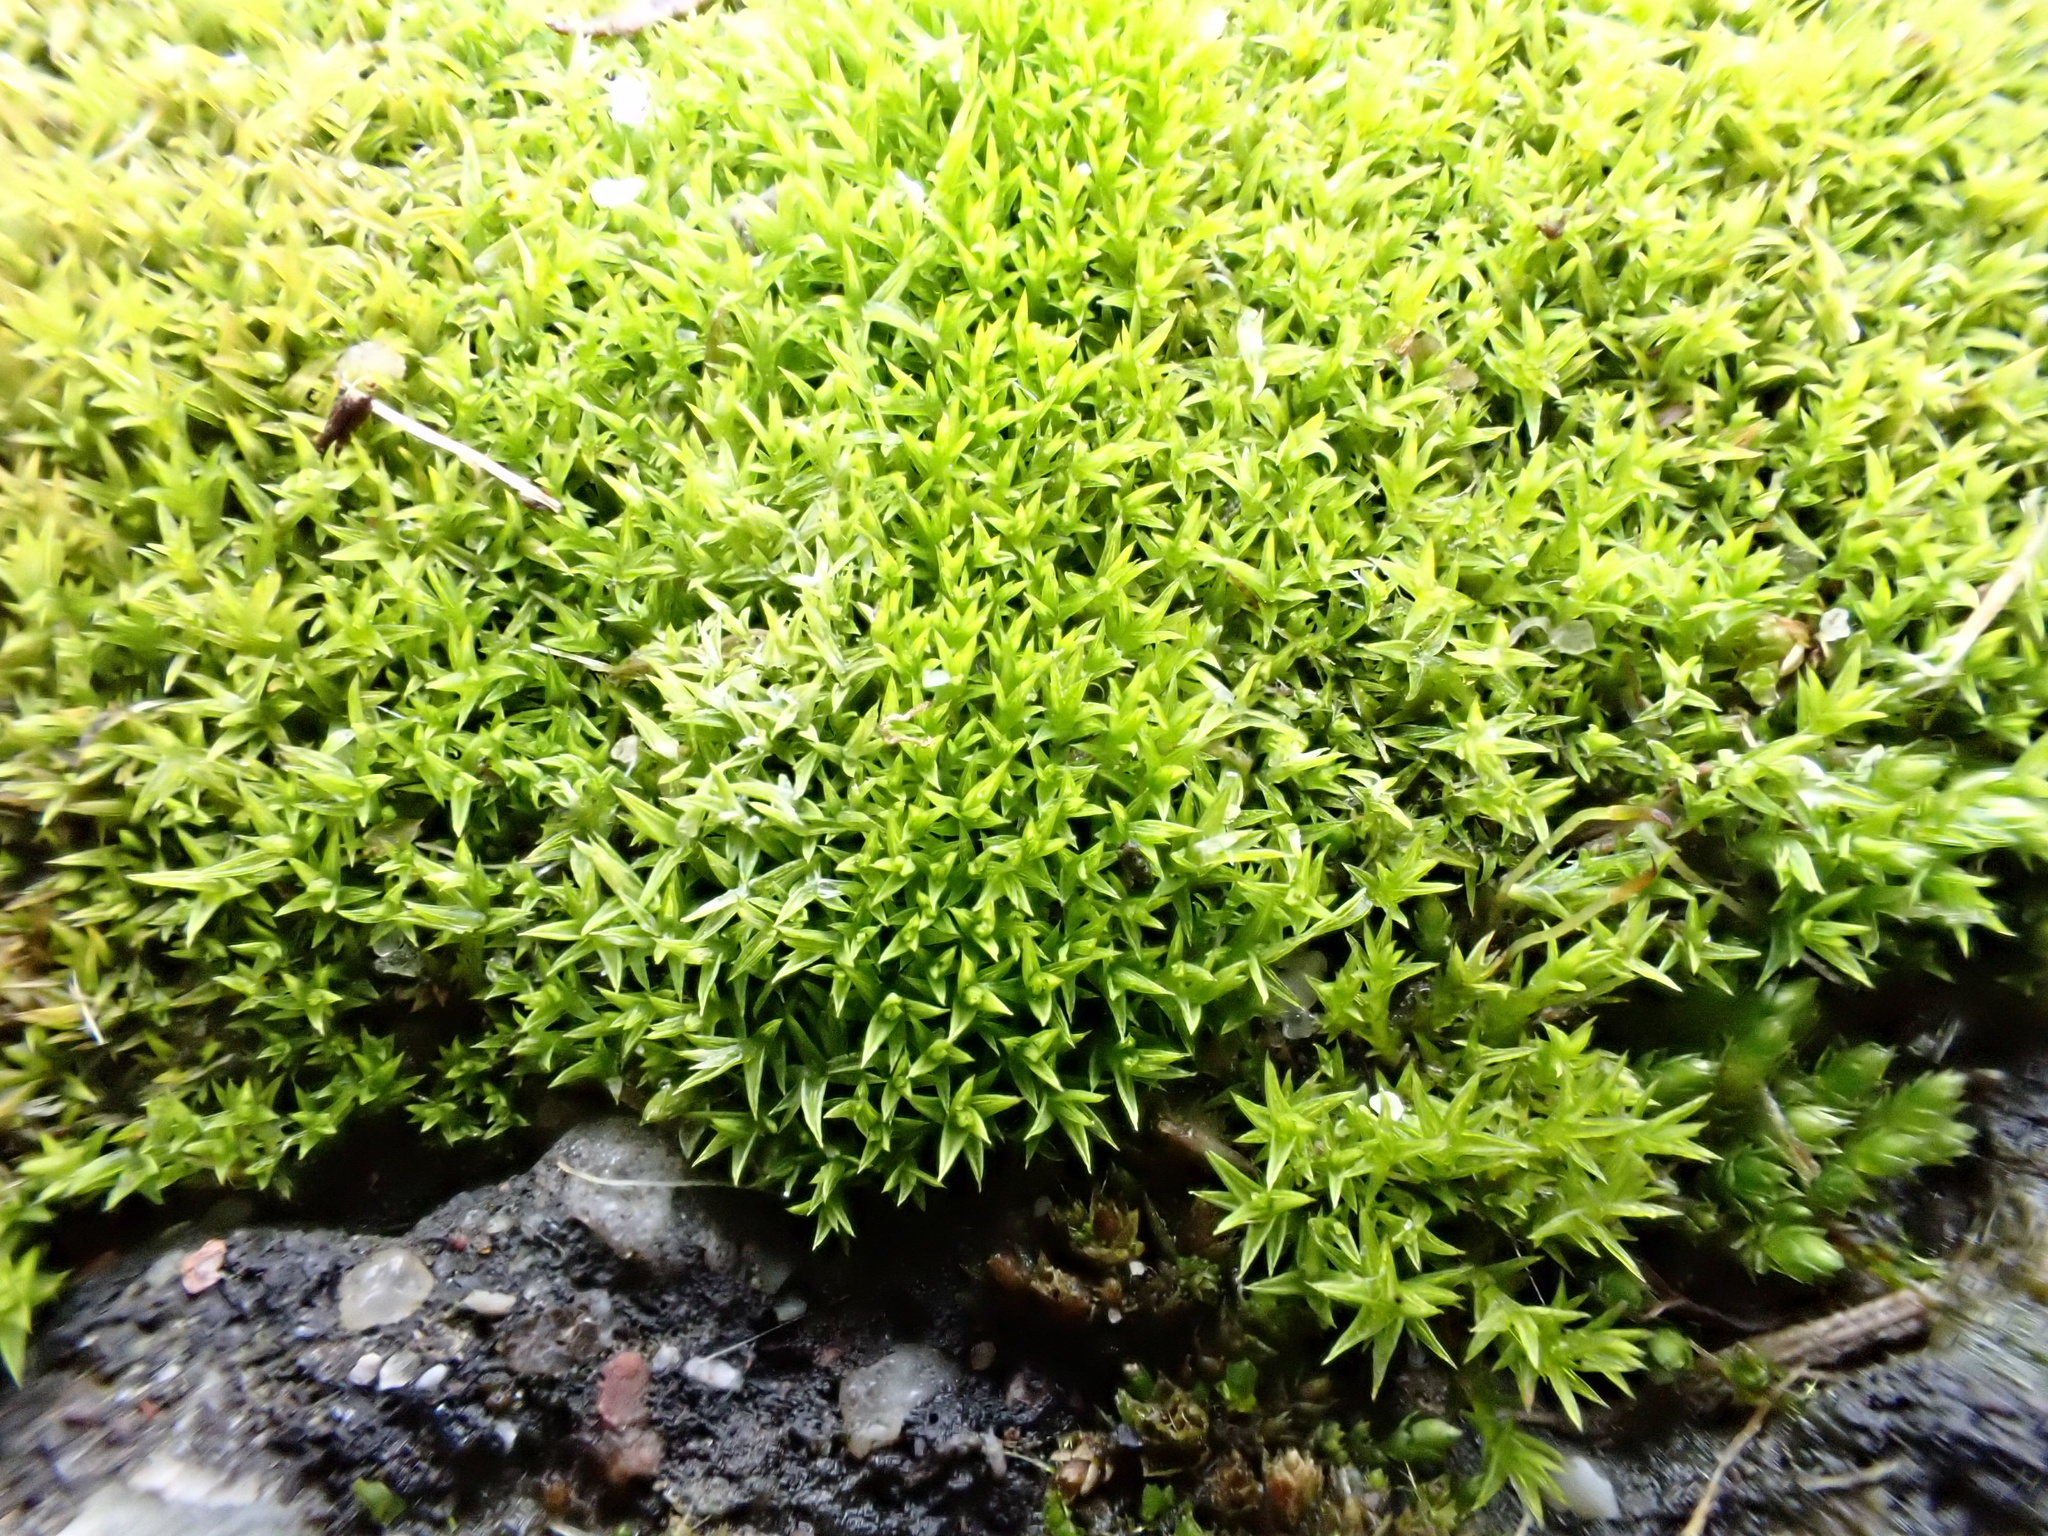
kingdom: Plantae
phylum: Bryophyta
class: Bryopsida
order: Pottiales
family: Pottiaceae
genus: Pseudocrossidium
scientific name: Pseudocrossidium hornschuchianum
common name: Hornschuch's beard-moss
